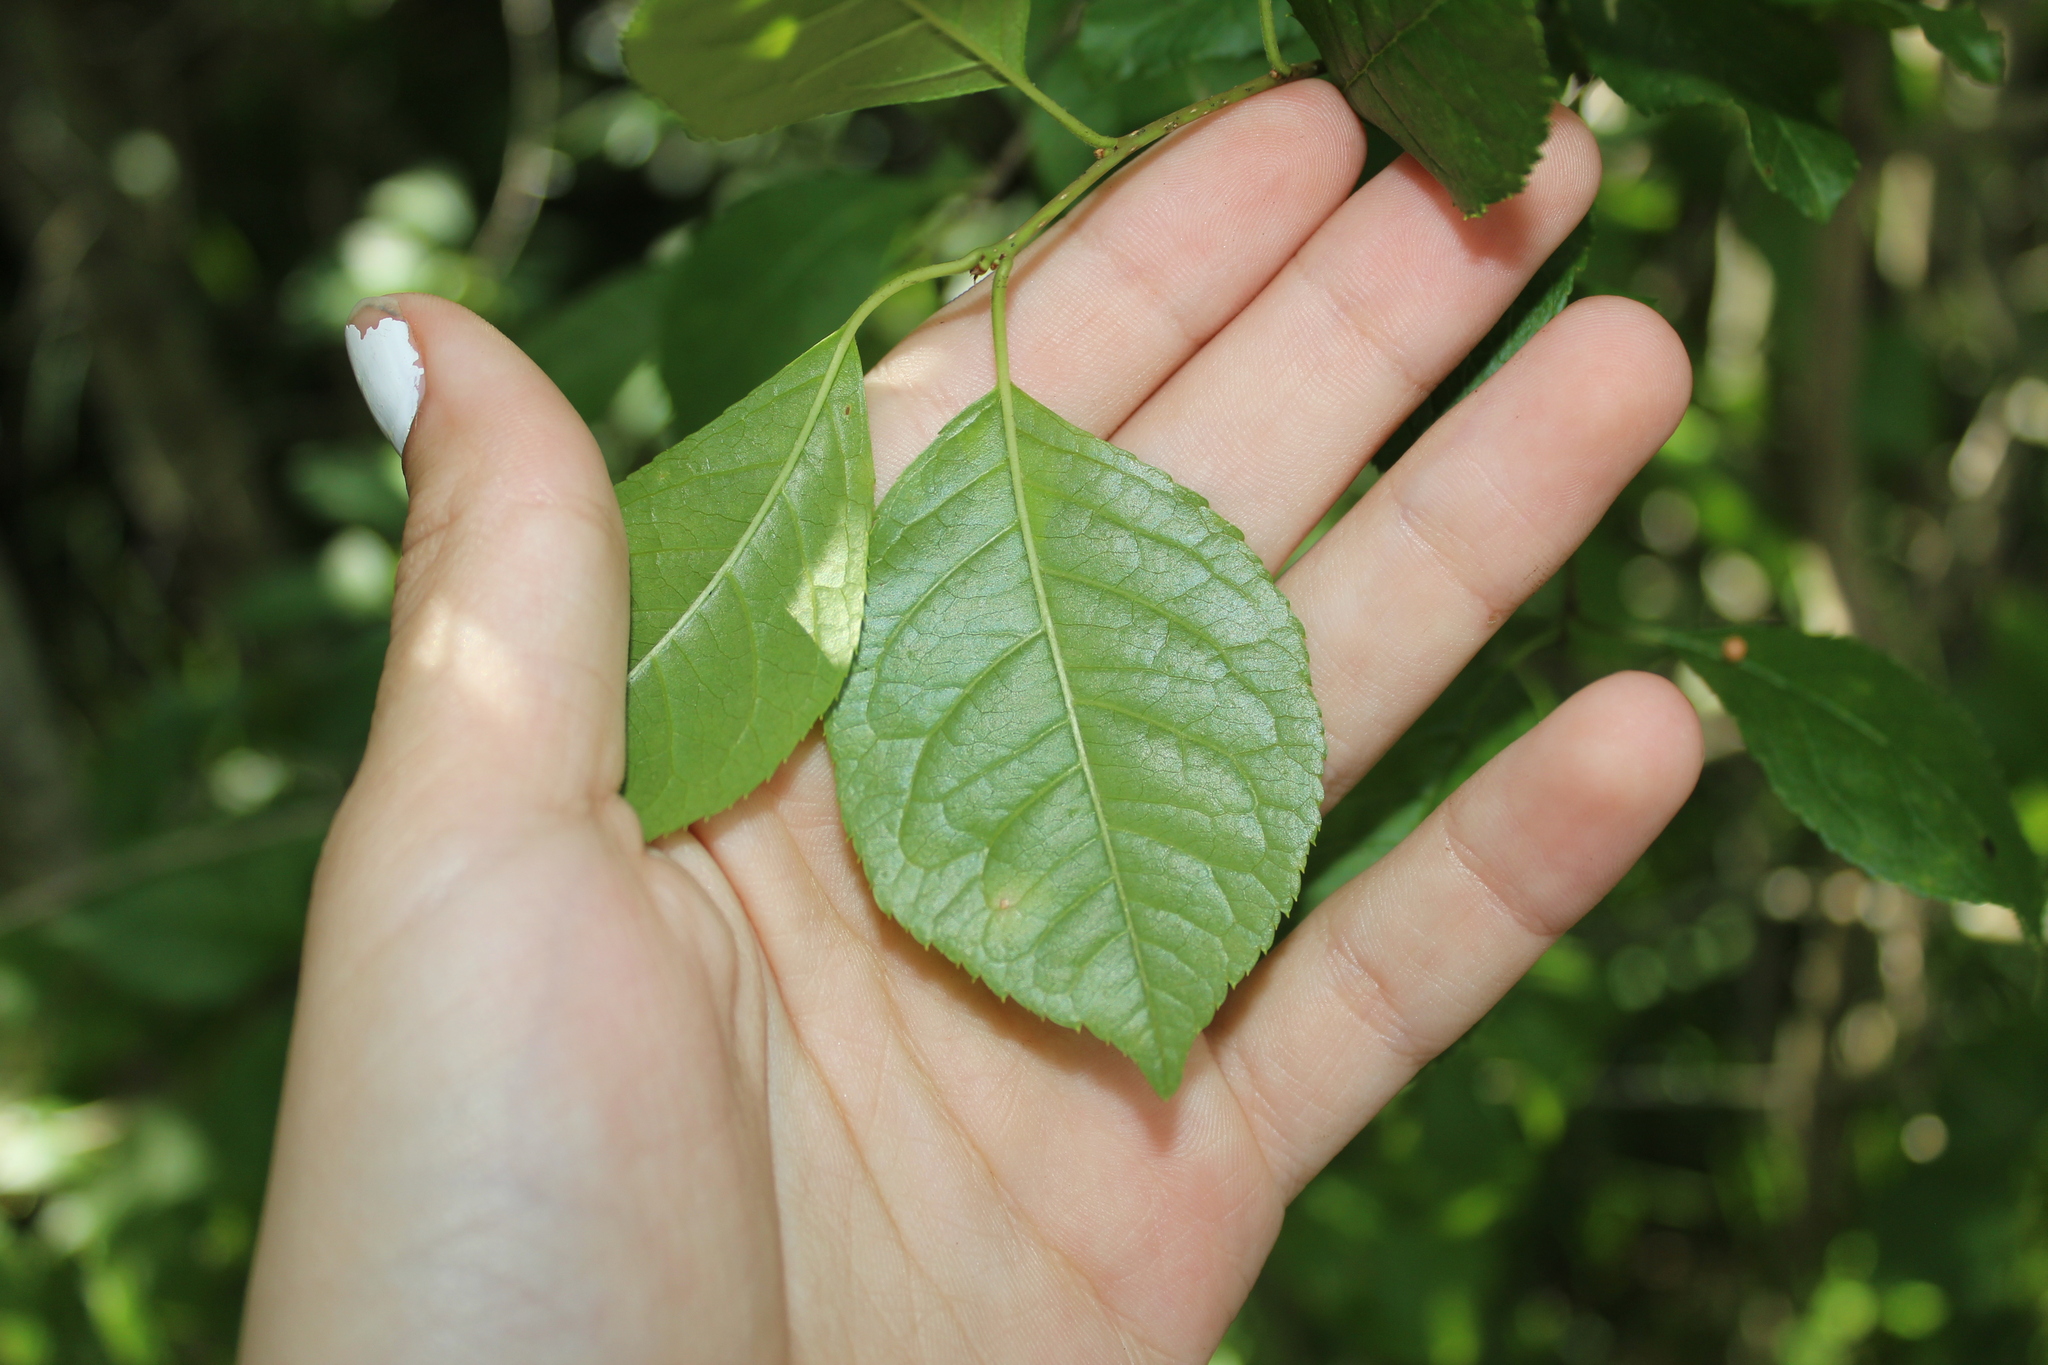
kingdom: Plantae
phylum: Tracheophyta
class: Magnoliopsida
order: Aquifoliales
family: Aquifoliaceae
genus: Ilex
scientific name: Ilex verticillata
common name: Virginia winterberry
